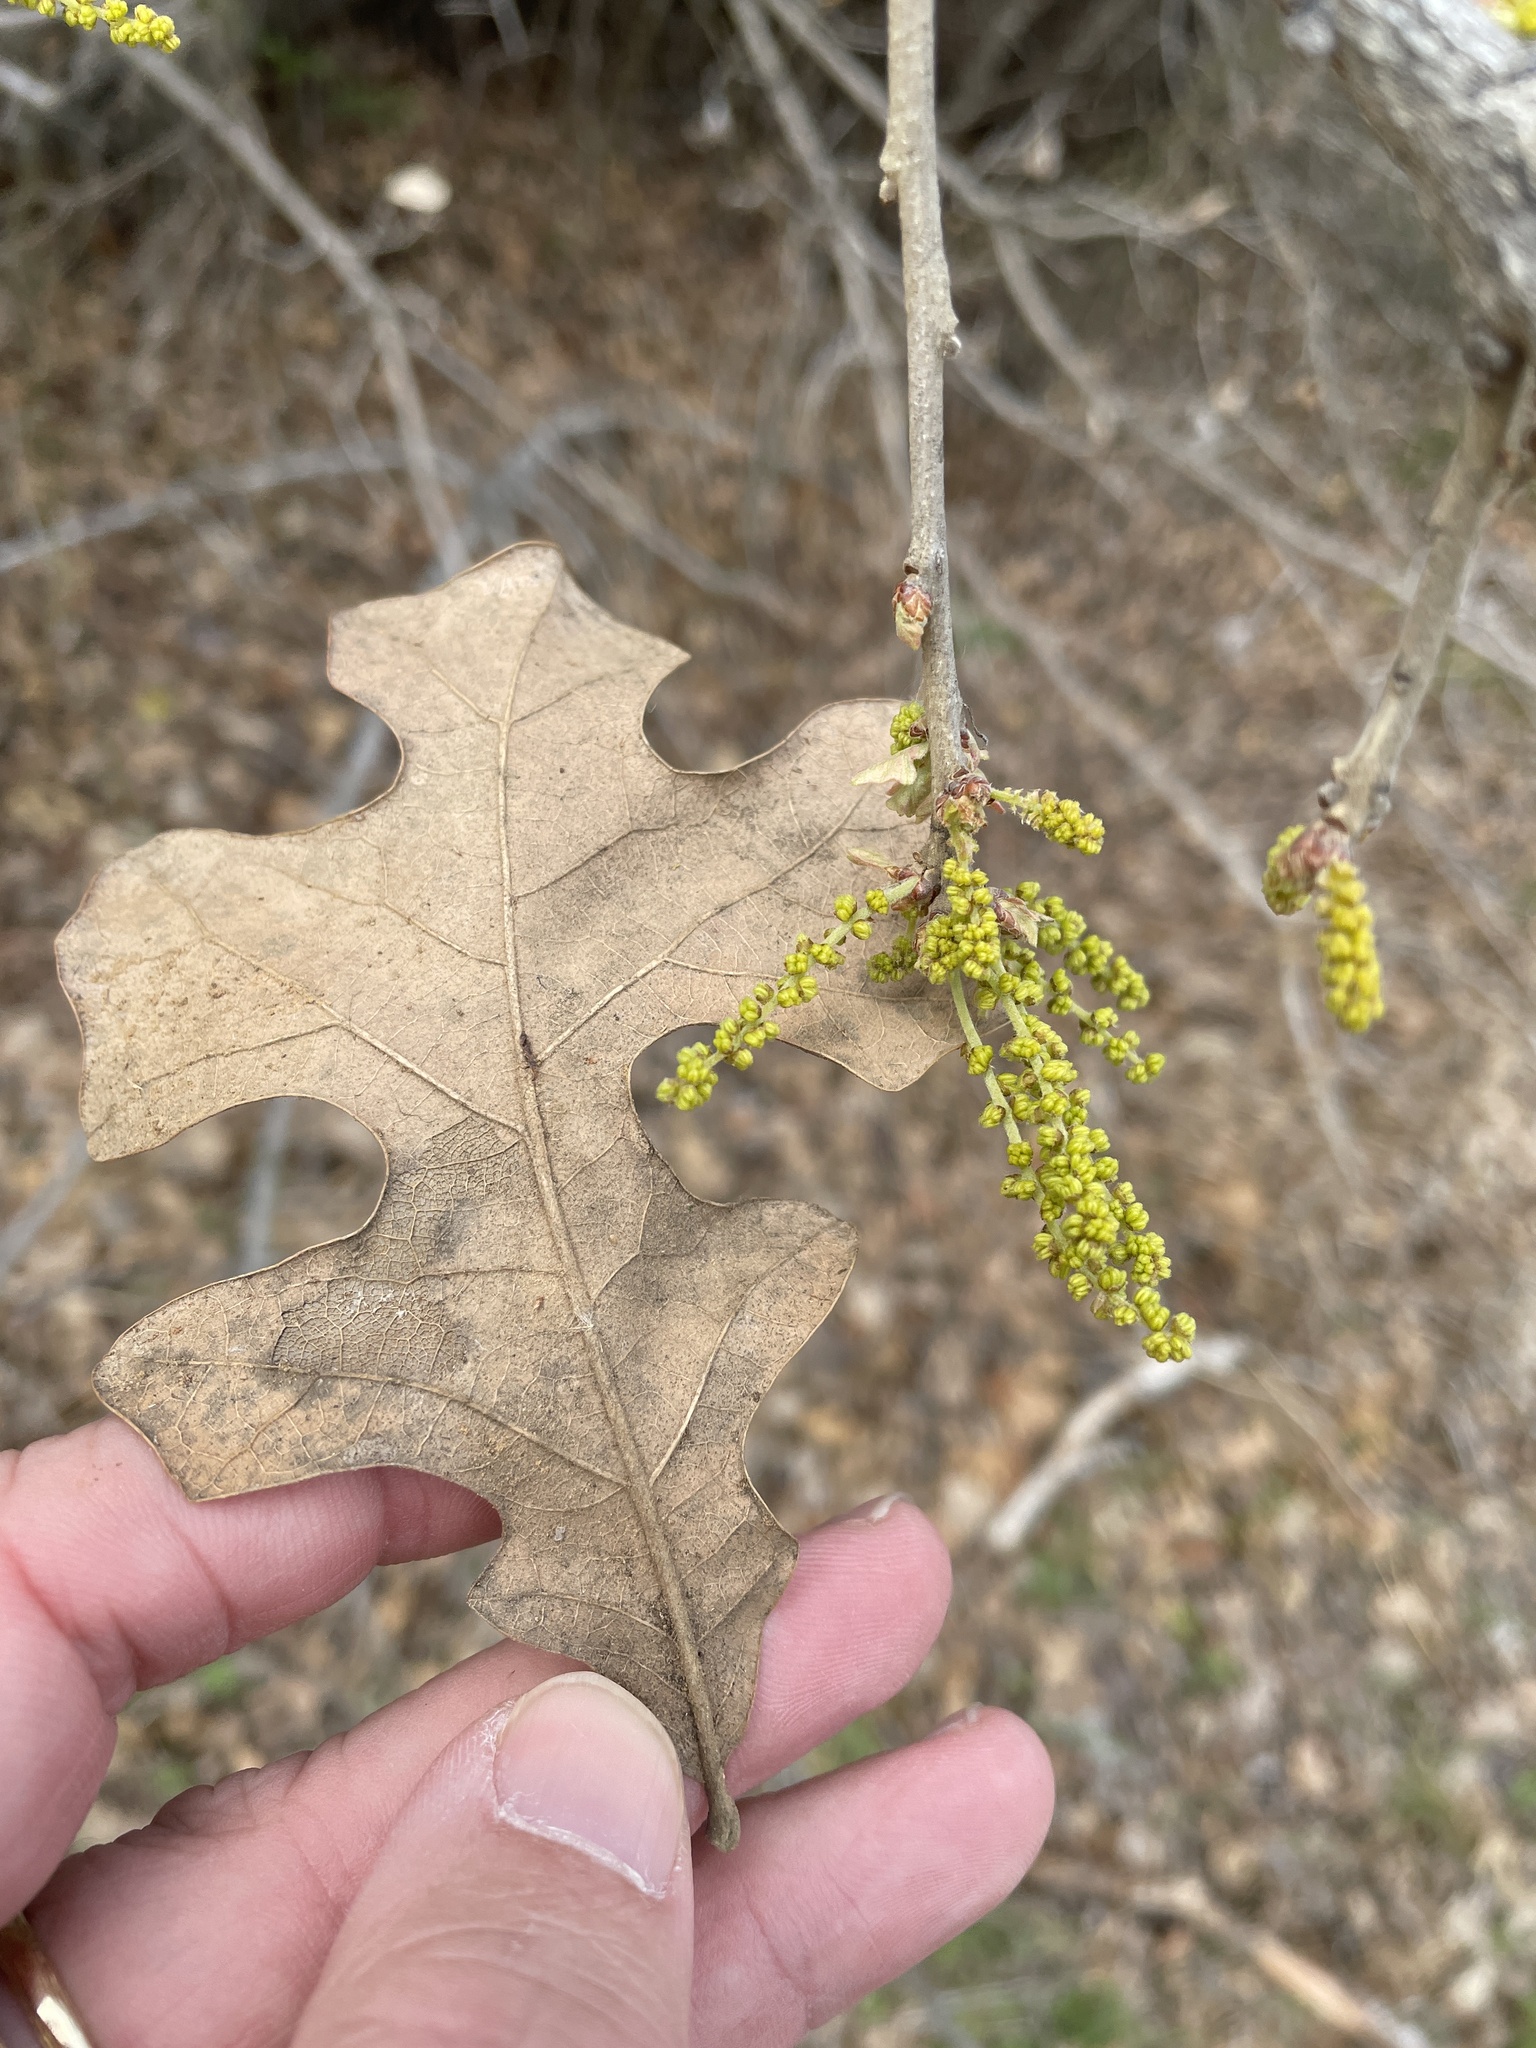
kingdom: Plantae
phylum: Tracheophyta
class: Magnoliopsida
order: Fagales
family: Fagaceae
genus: Quercus
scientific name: Quercus stellata
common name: Post oak
